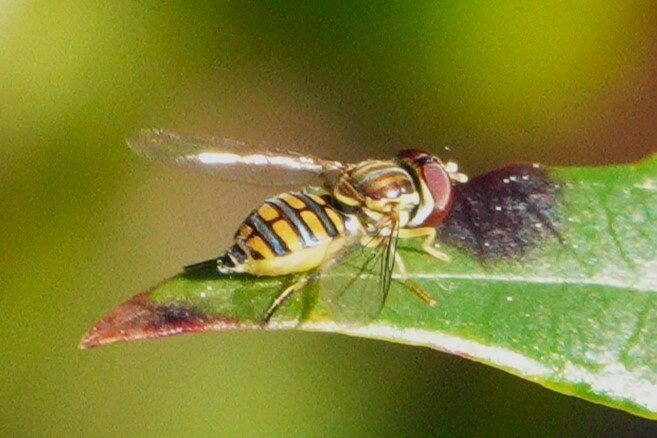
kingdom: Animalia
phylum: Arthropoda
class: Insecta
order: Diptera
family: Syrphidae
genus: Toxomerus
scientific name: Toxomerus verticalis
